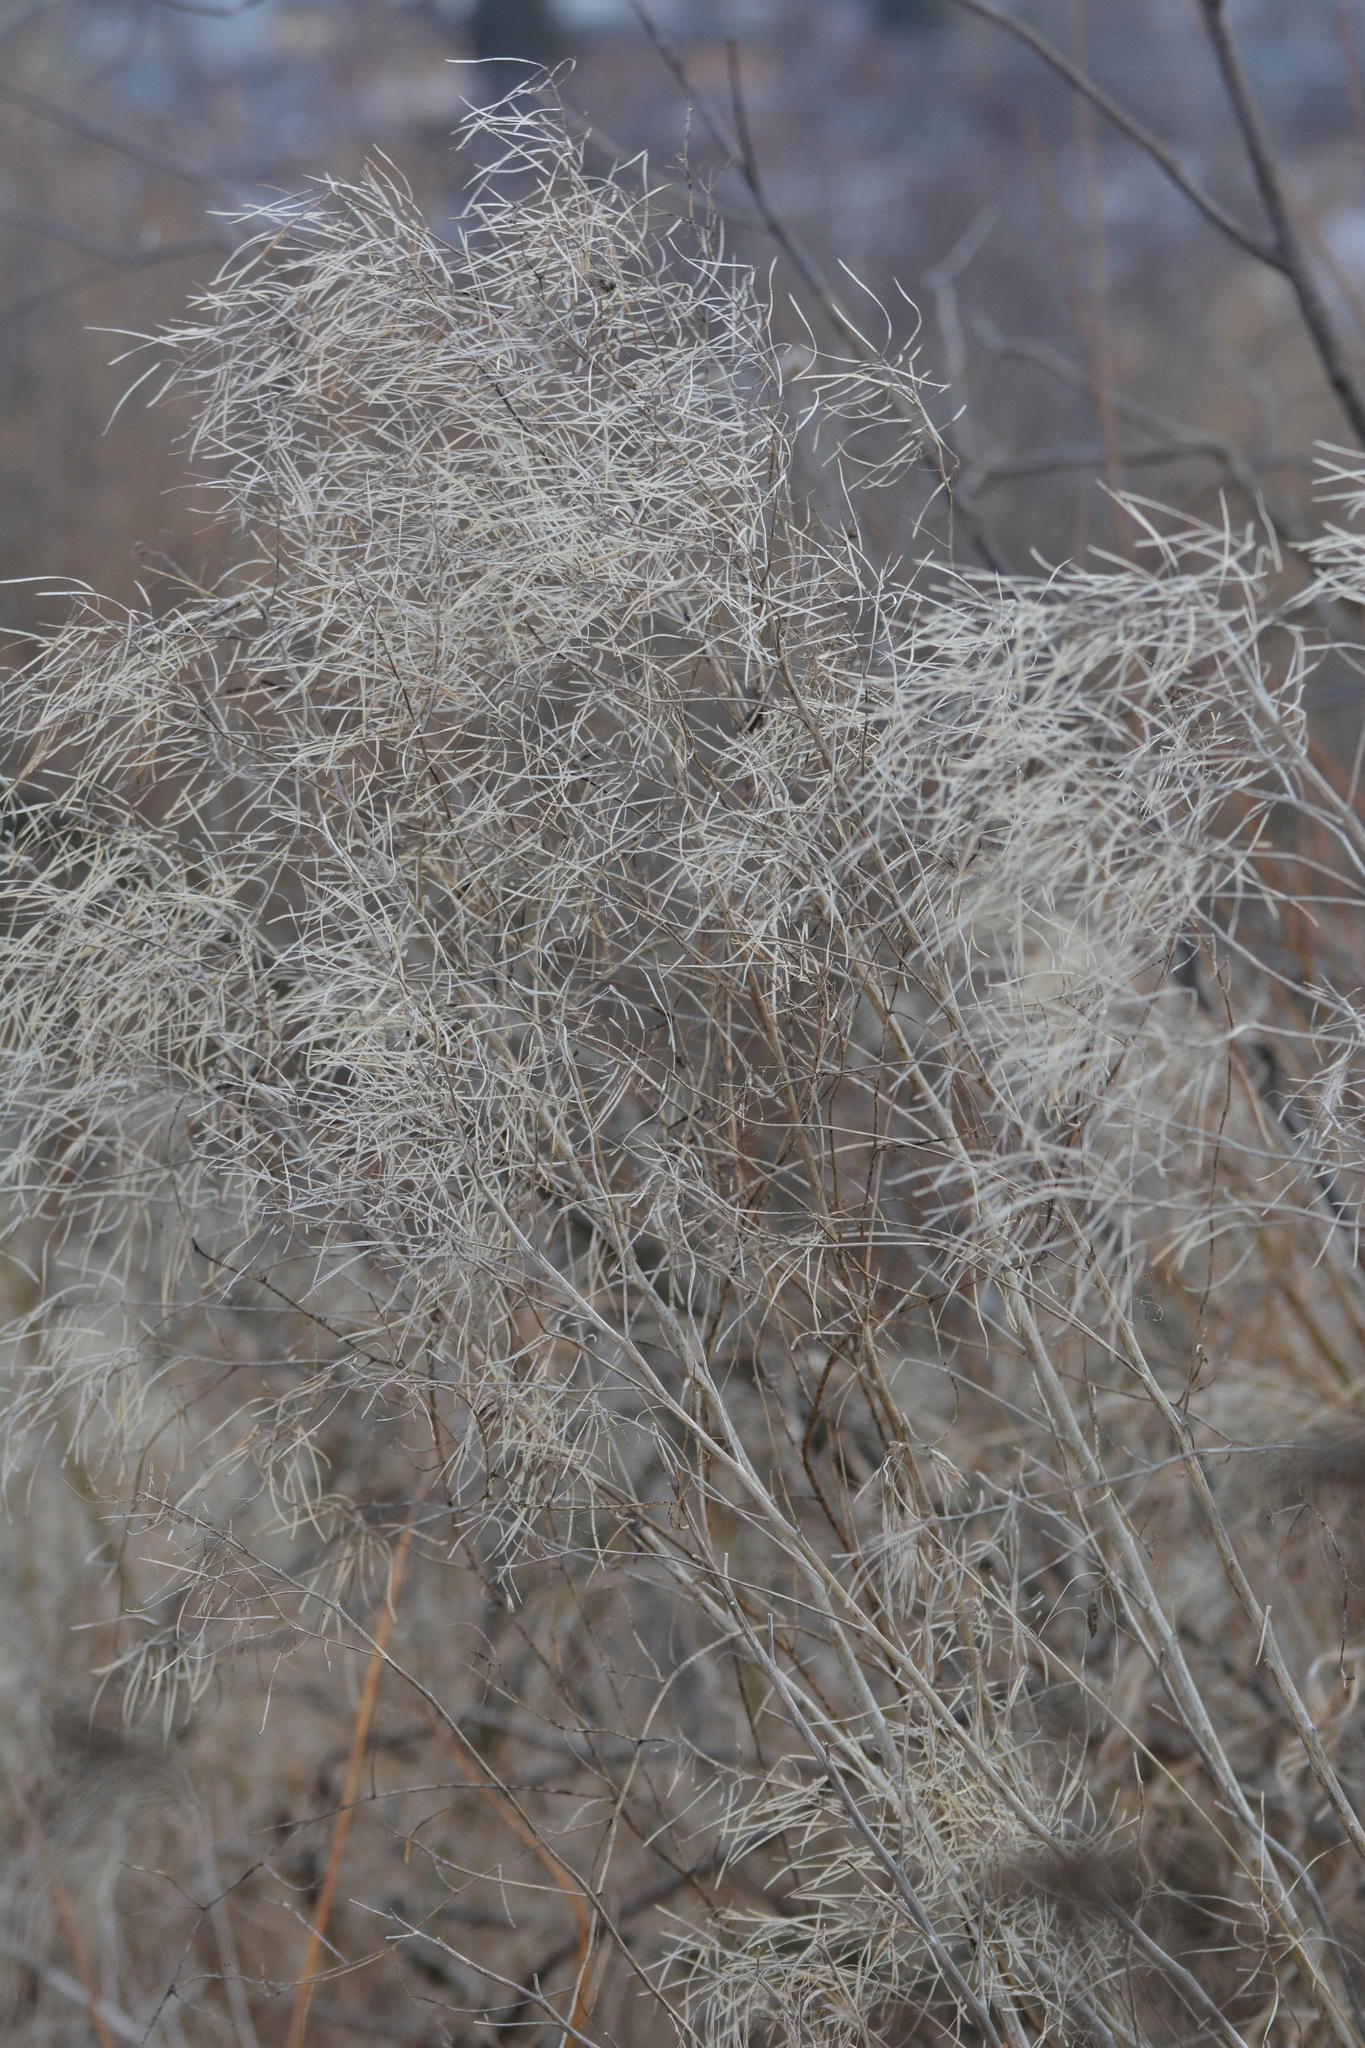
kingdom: Plantae
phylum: Tracheophyta
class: Magnoliopsida
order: Brassicales
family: Brassicaceae
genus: Sisymbrium
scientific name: Sisymbrium strictissimum
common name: Perennial rocket
